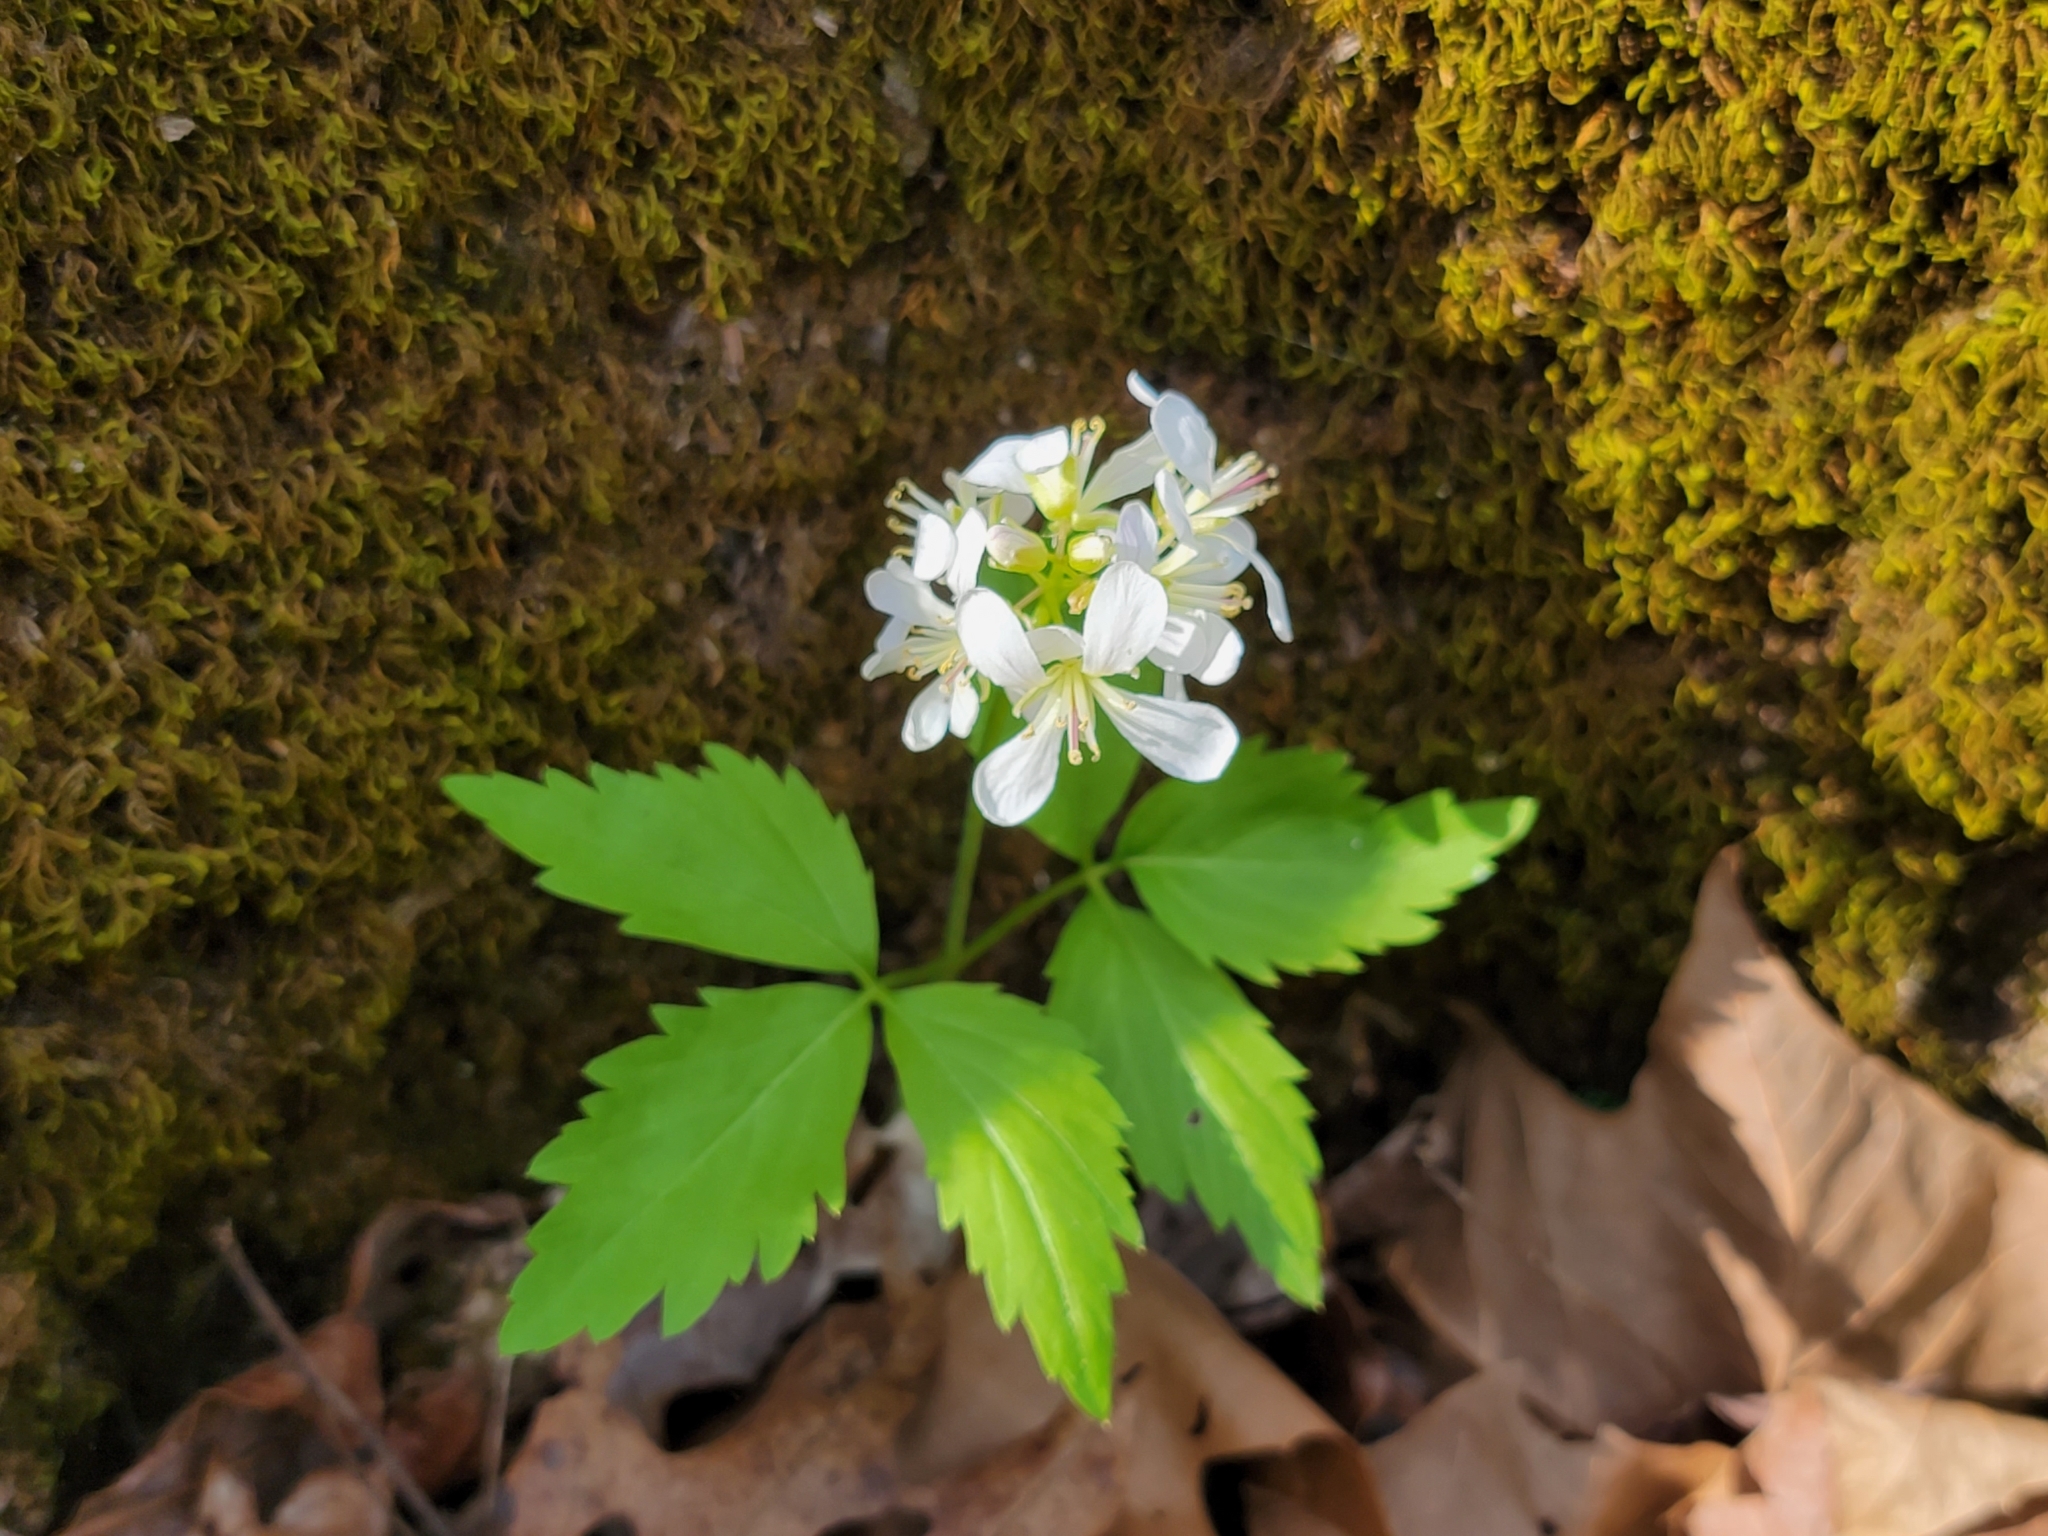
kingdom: Plantae
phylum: Tracheophyta
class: Magnoliopsida
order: Brassicales
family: Brassicaceae
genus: Cardamine
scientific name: Cardamine diphylla
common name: Broad-leaved toothwort
